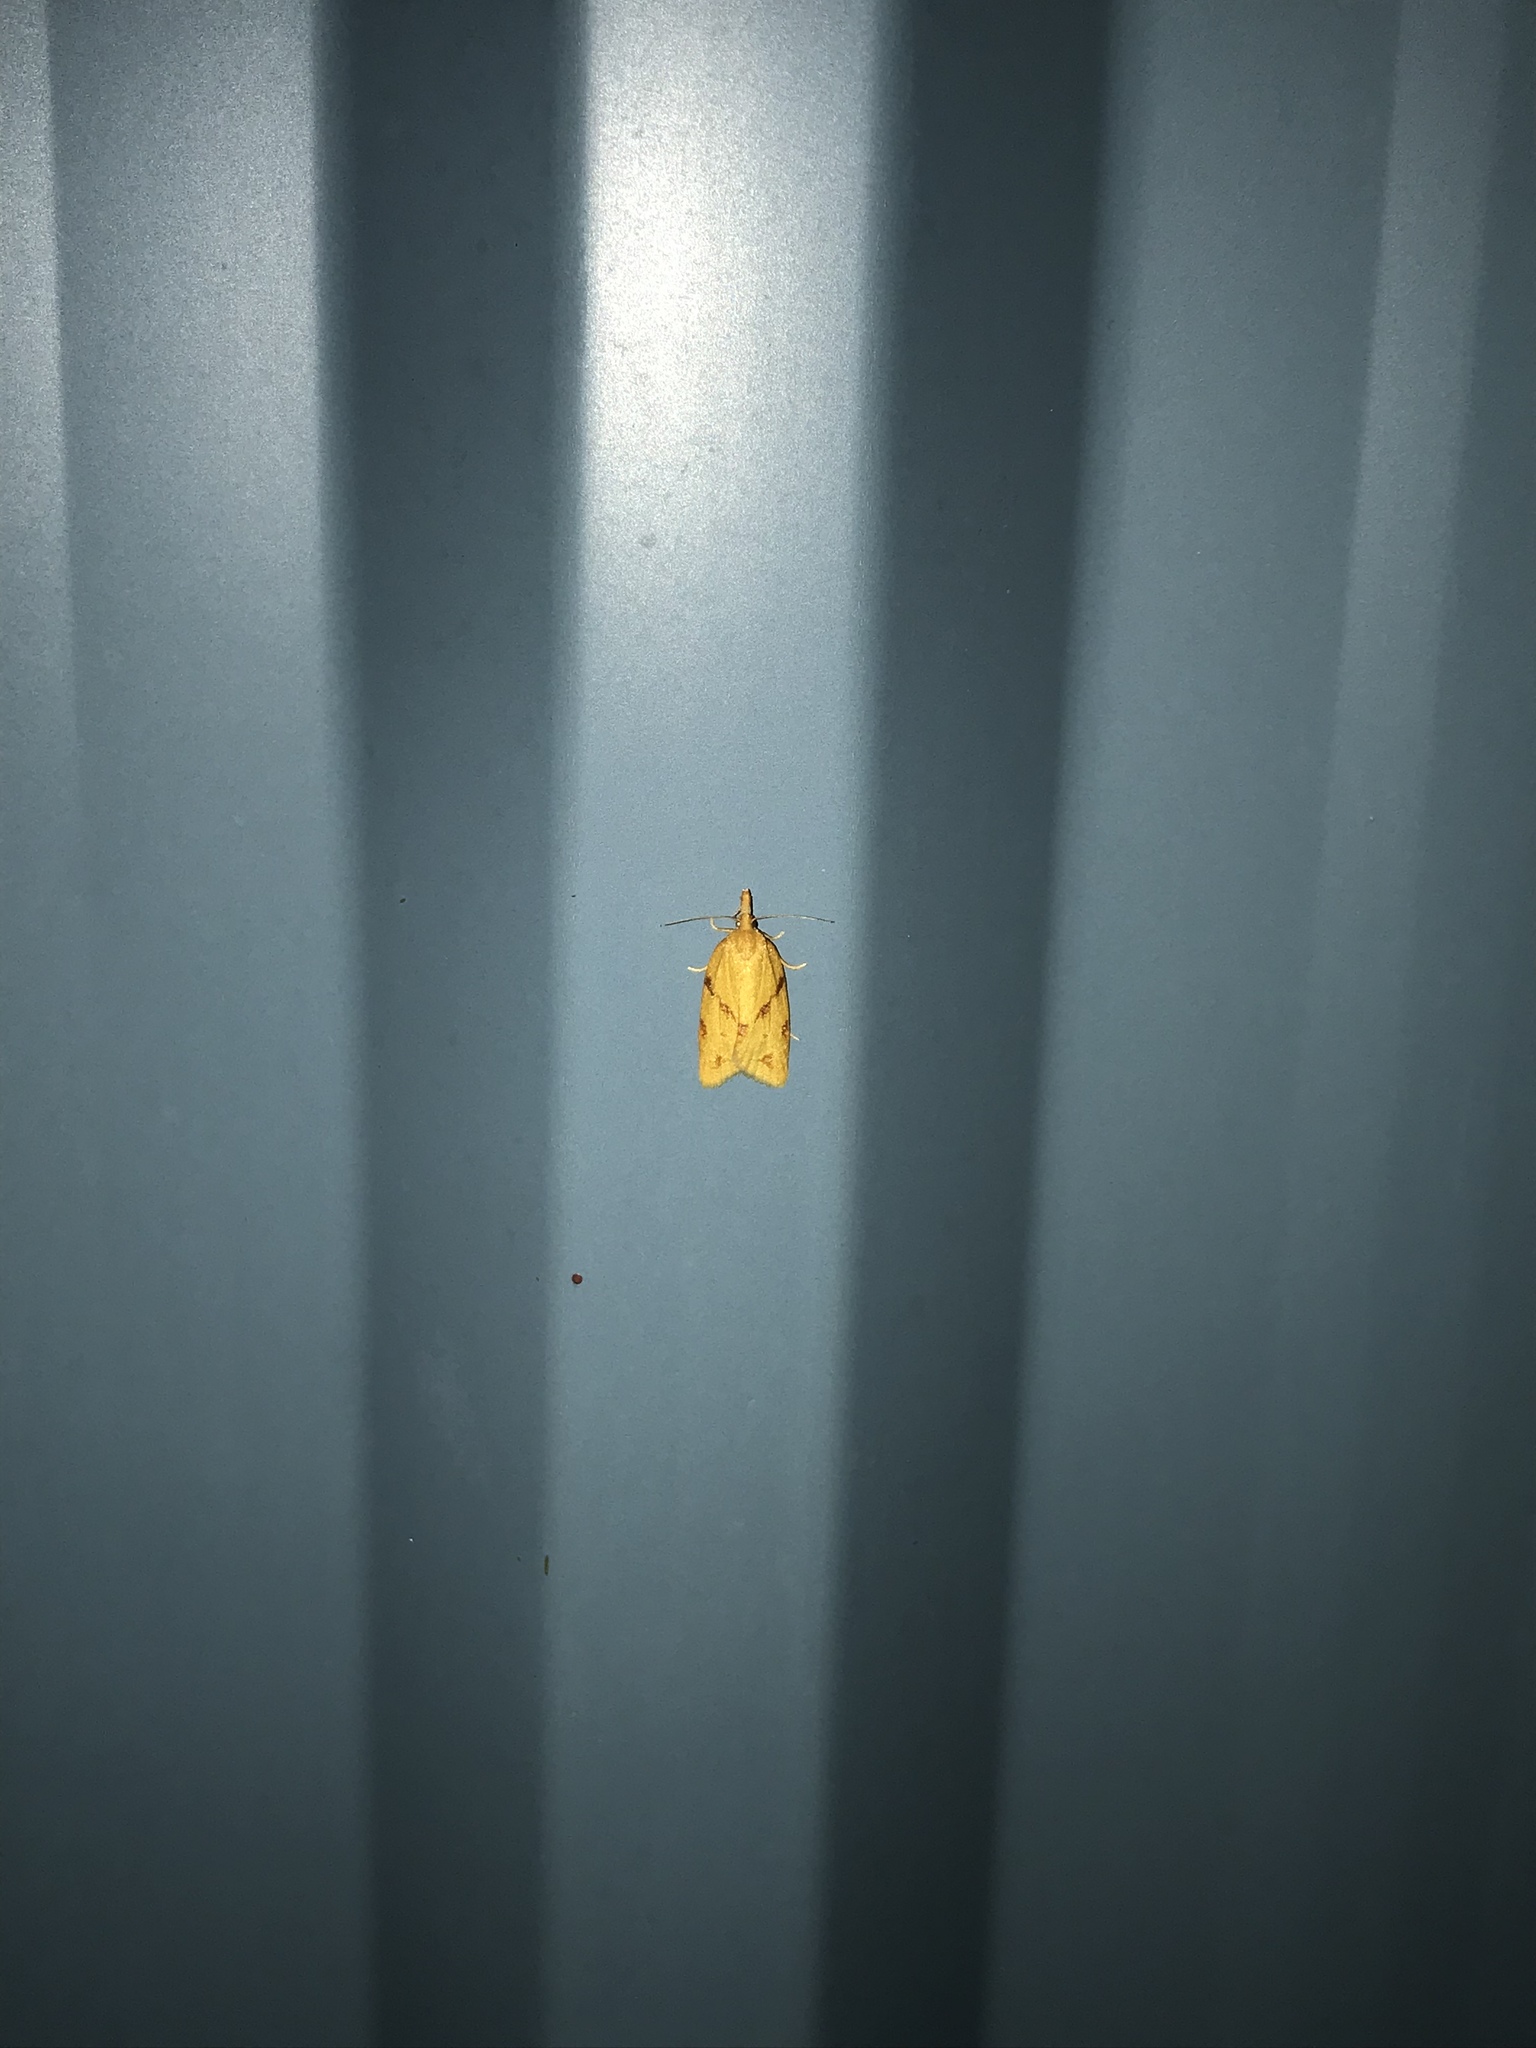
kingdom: Animalia
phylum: Arthropoda
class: Insecta
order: Lepidoptera
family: Tortricidae
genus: Sparganothis
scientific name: Sparganothis unifasciana
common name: One-lined sparganothis moth
